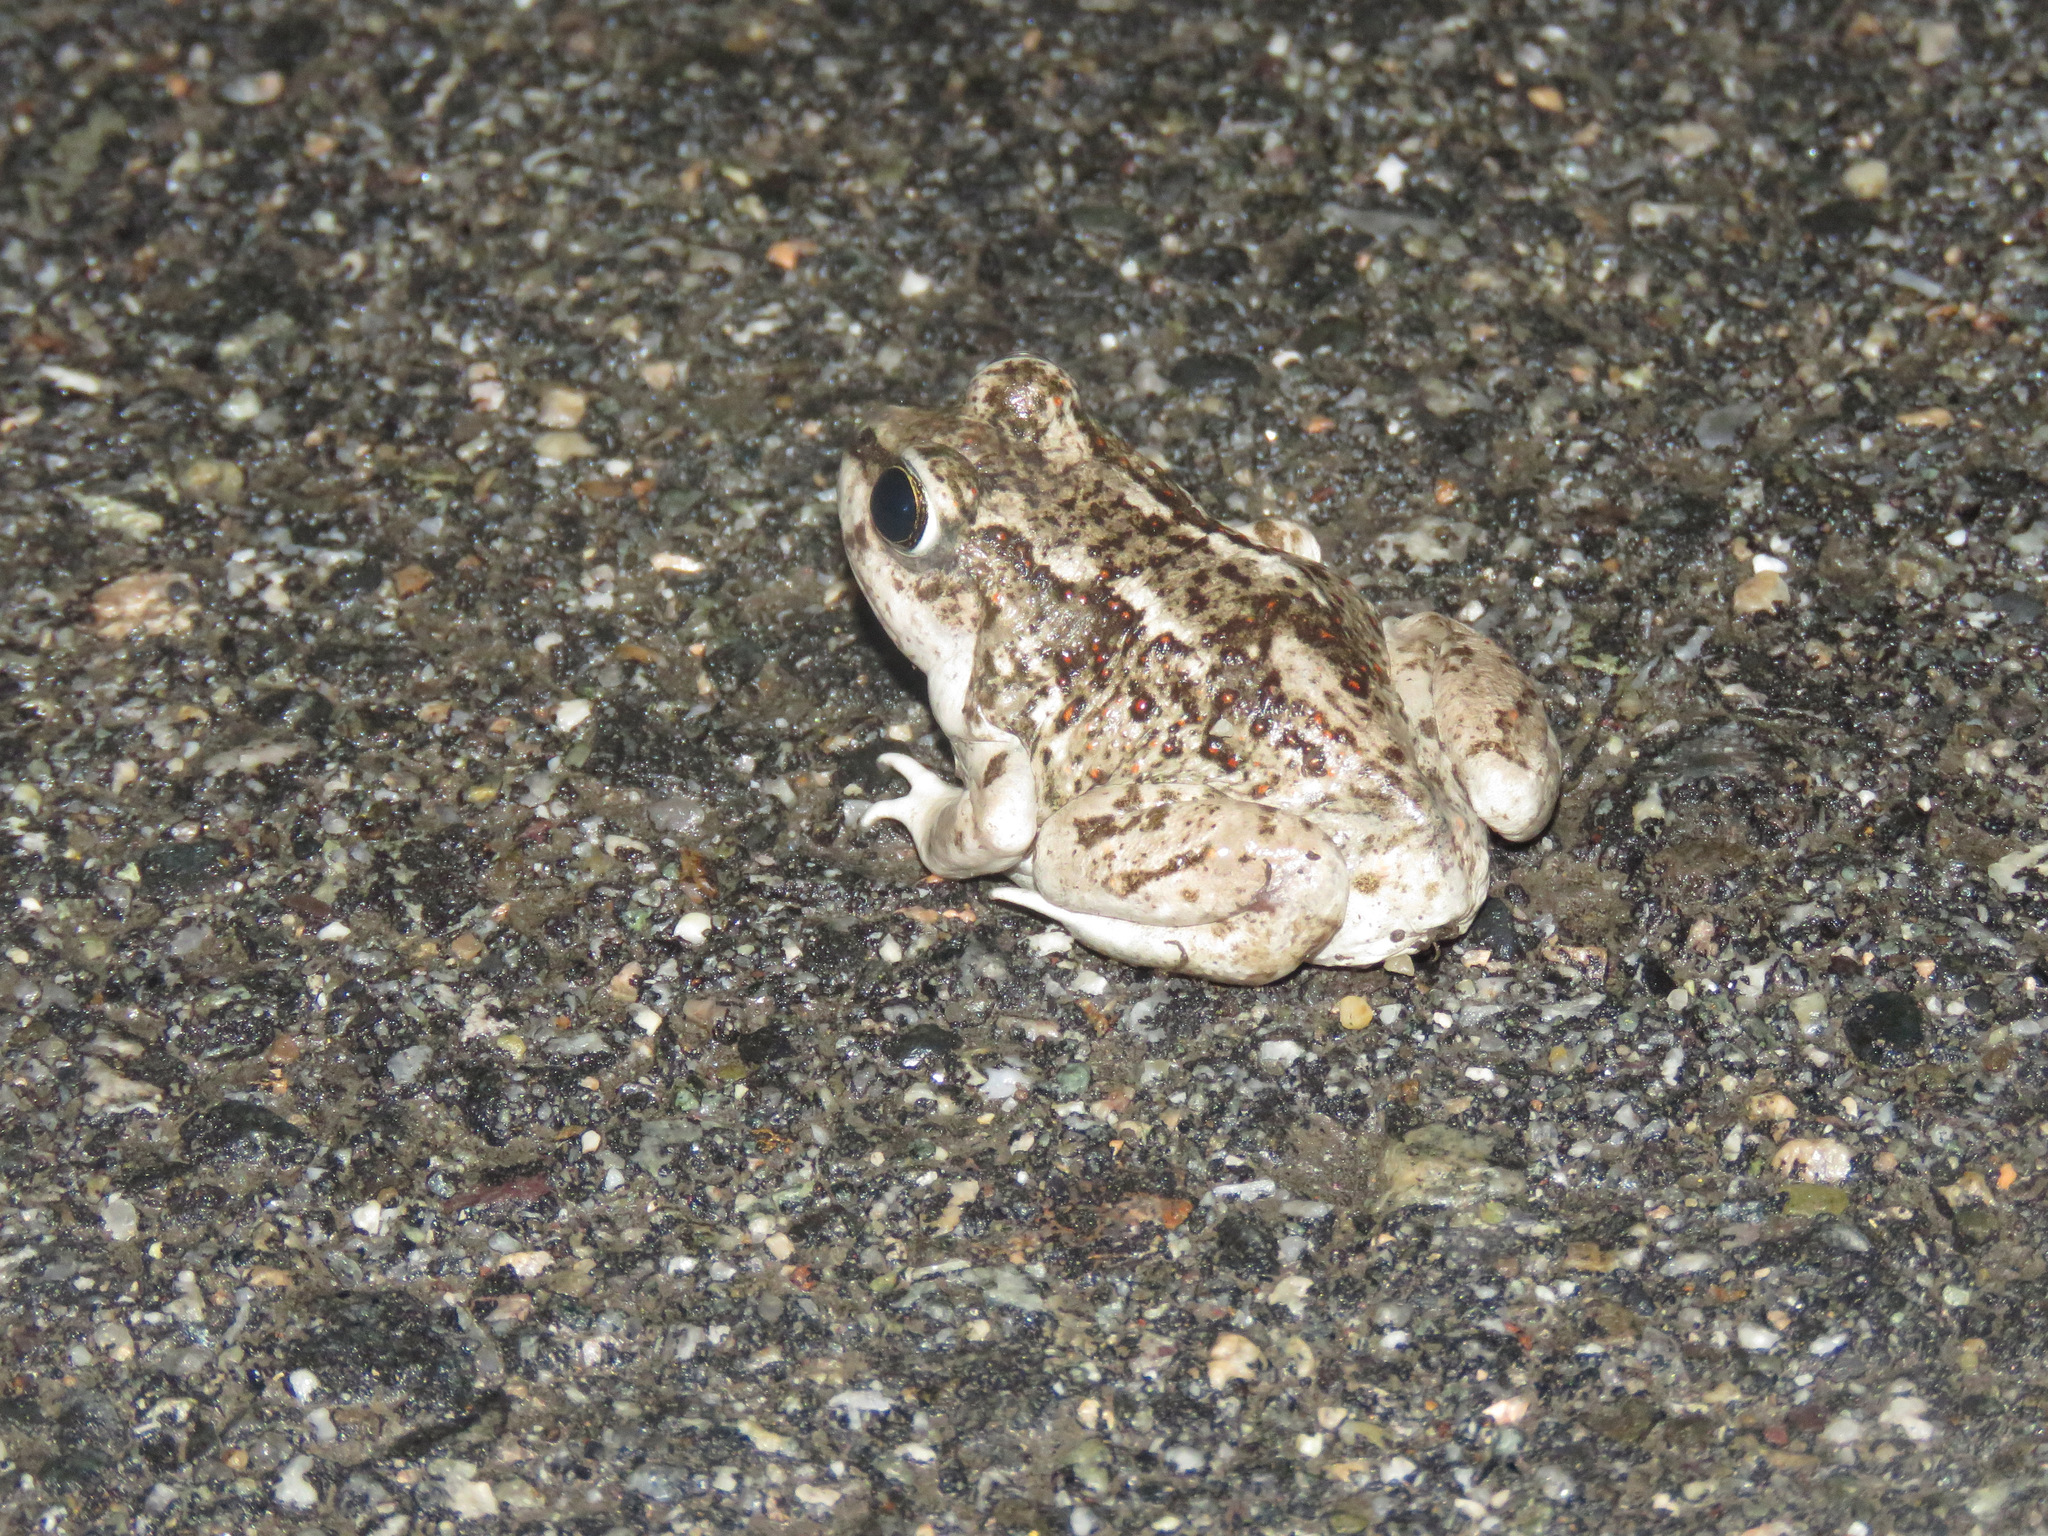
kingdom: Animalia
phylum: Chordata
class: Amphibia
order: Anura
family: Scaphiopodidae
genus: Spea
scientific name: Spea intermontana
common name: Great basin spadefoot
